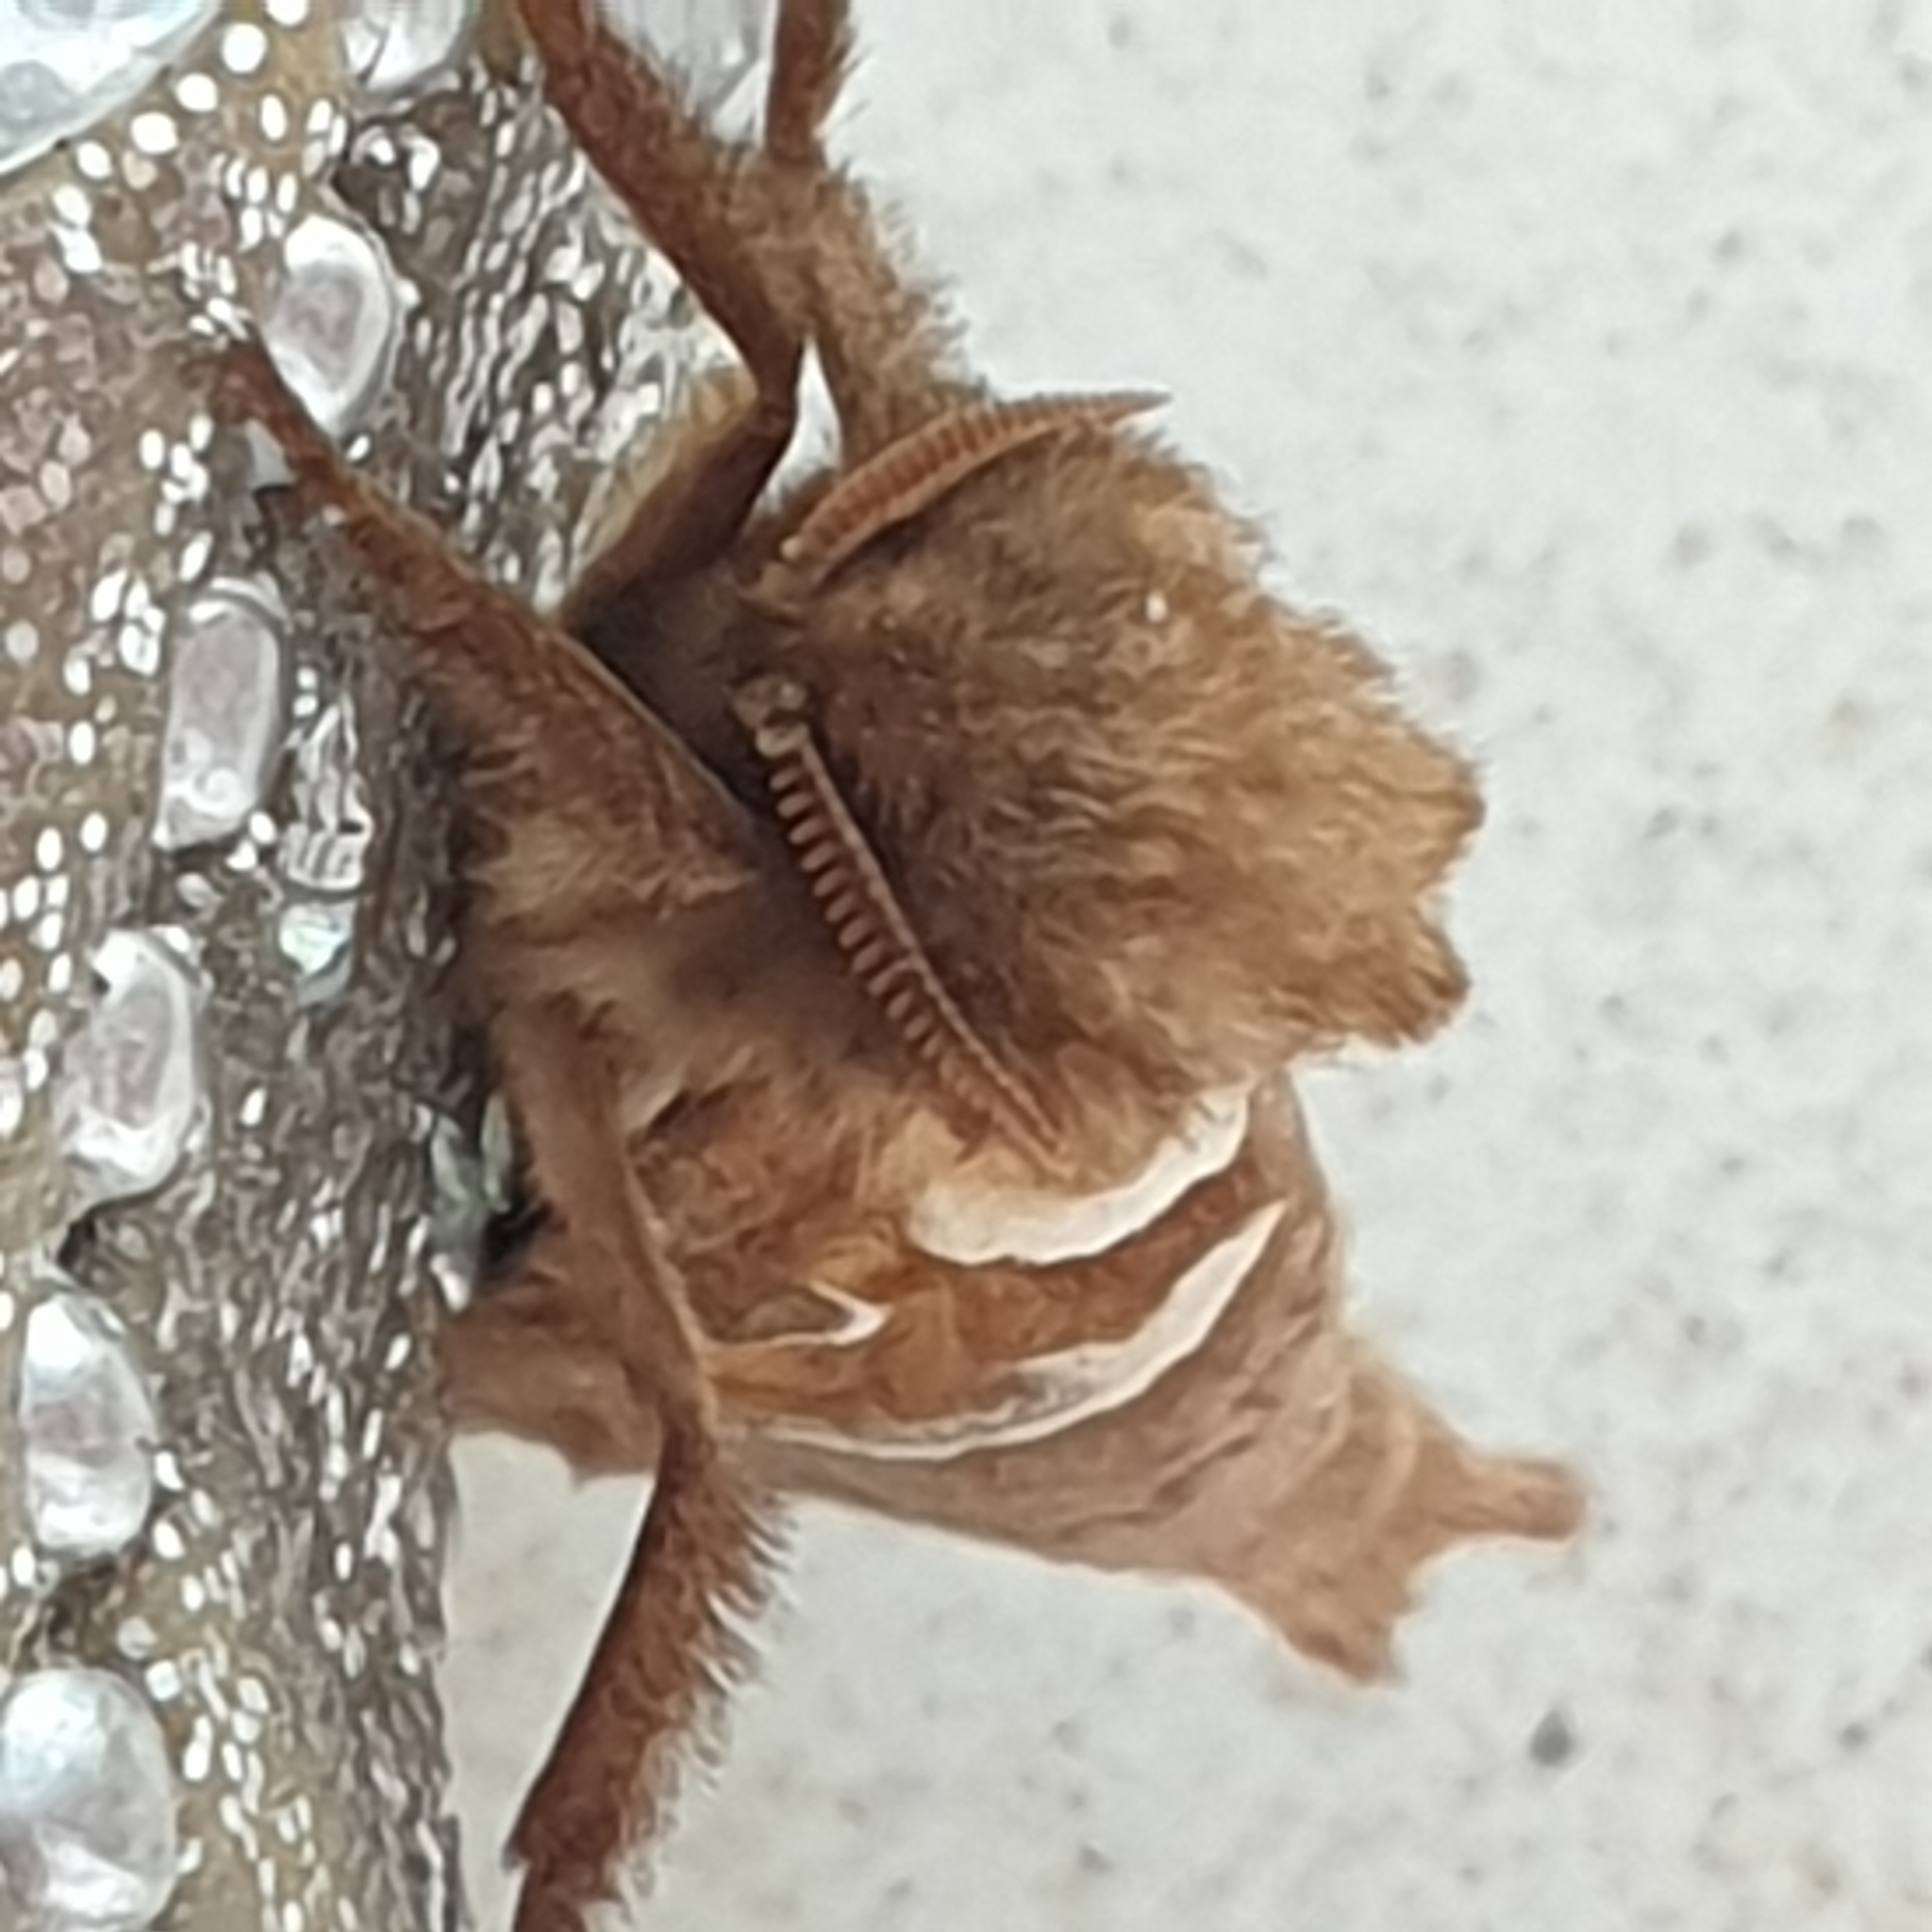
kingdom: Animalia
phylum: Arthropoda
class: Insecta
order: Lepidoptera
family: Hepialidae
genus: Triodia
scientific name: Triodia sylvina
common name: Orange swift
